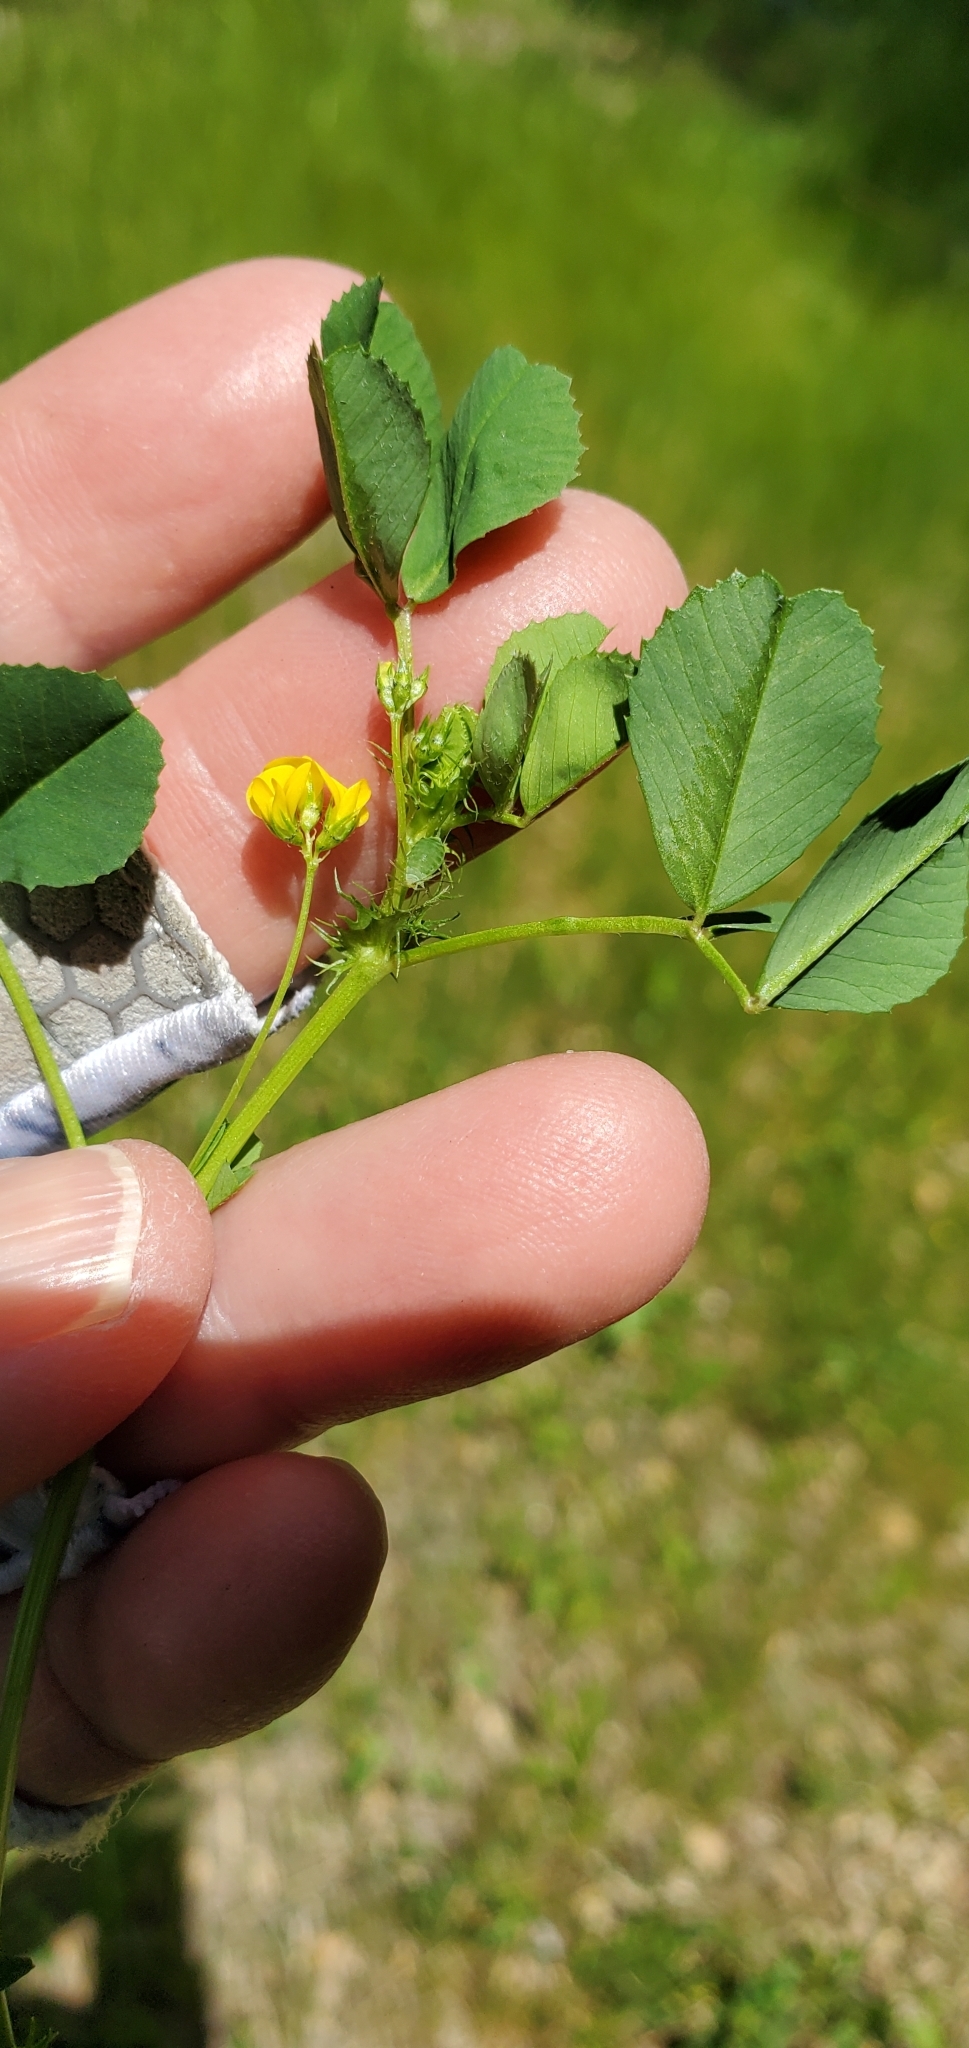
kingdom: Plantae
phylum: Tracheophyta
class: Magnoliopsida
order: Fabales
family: Fabaceae
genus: Medicago
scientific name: Medicago polymorpha
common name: Burclover
